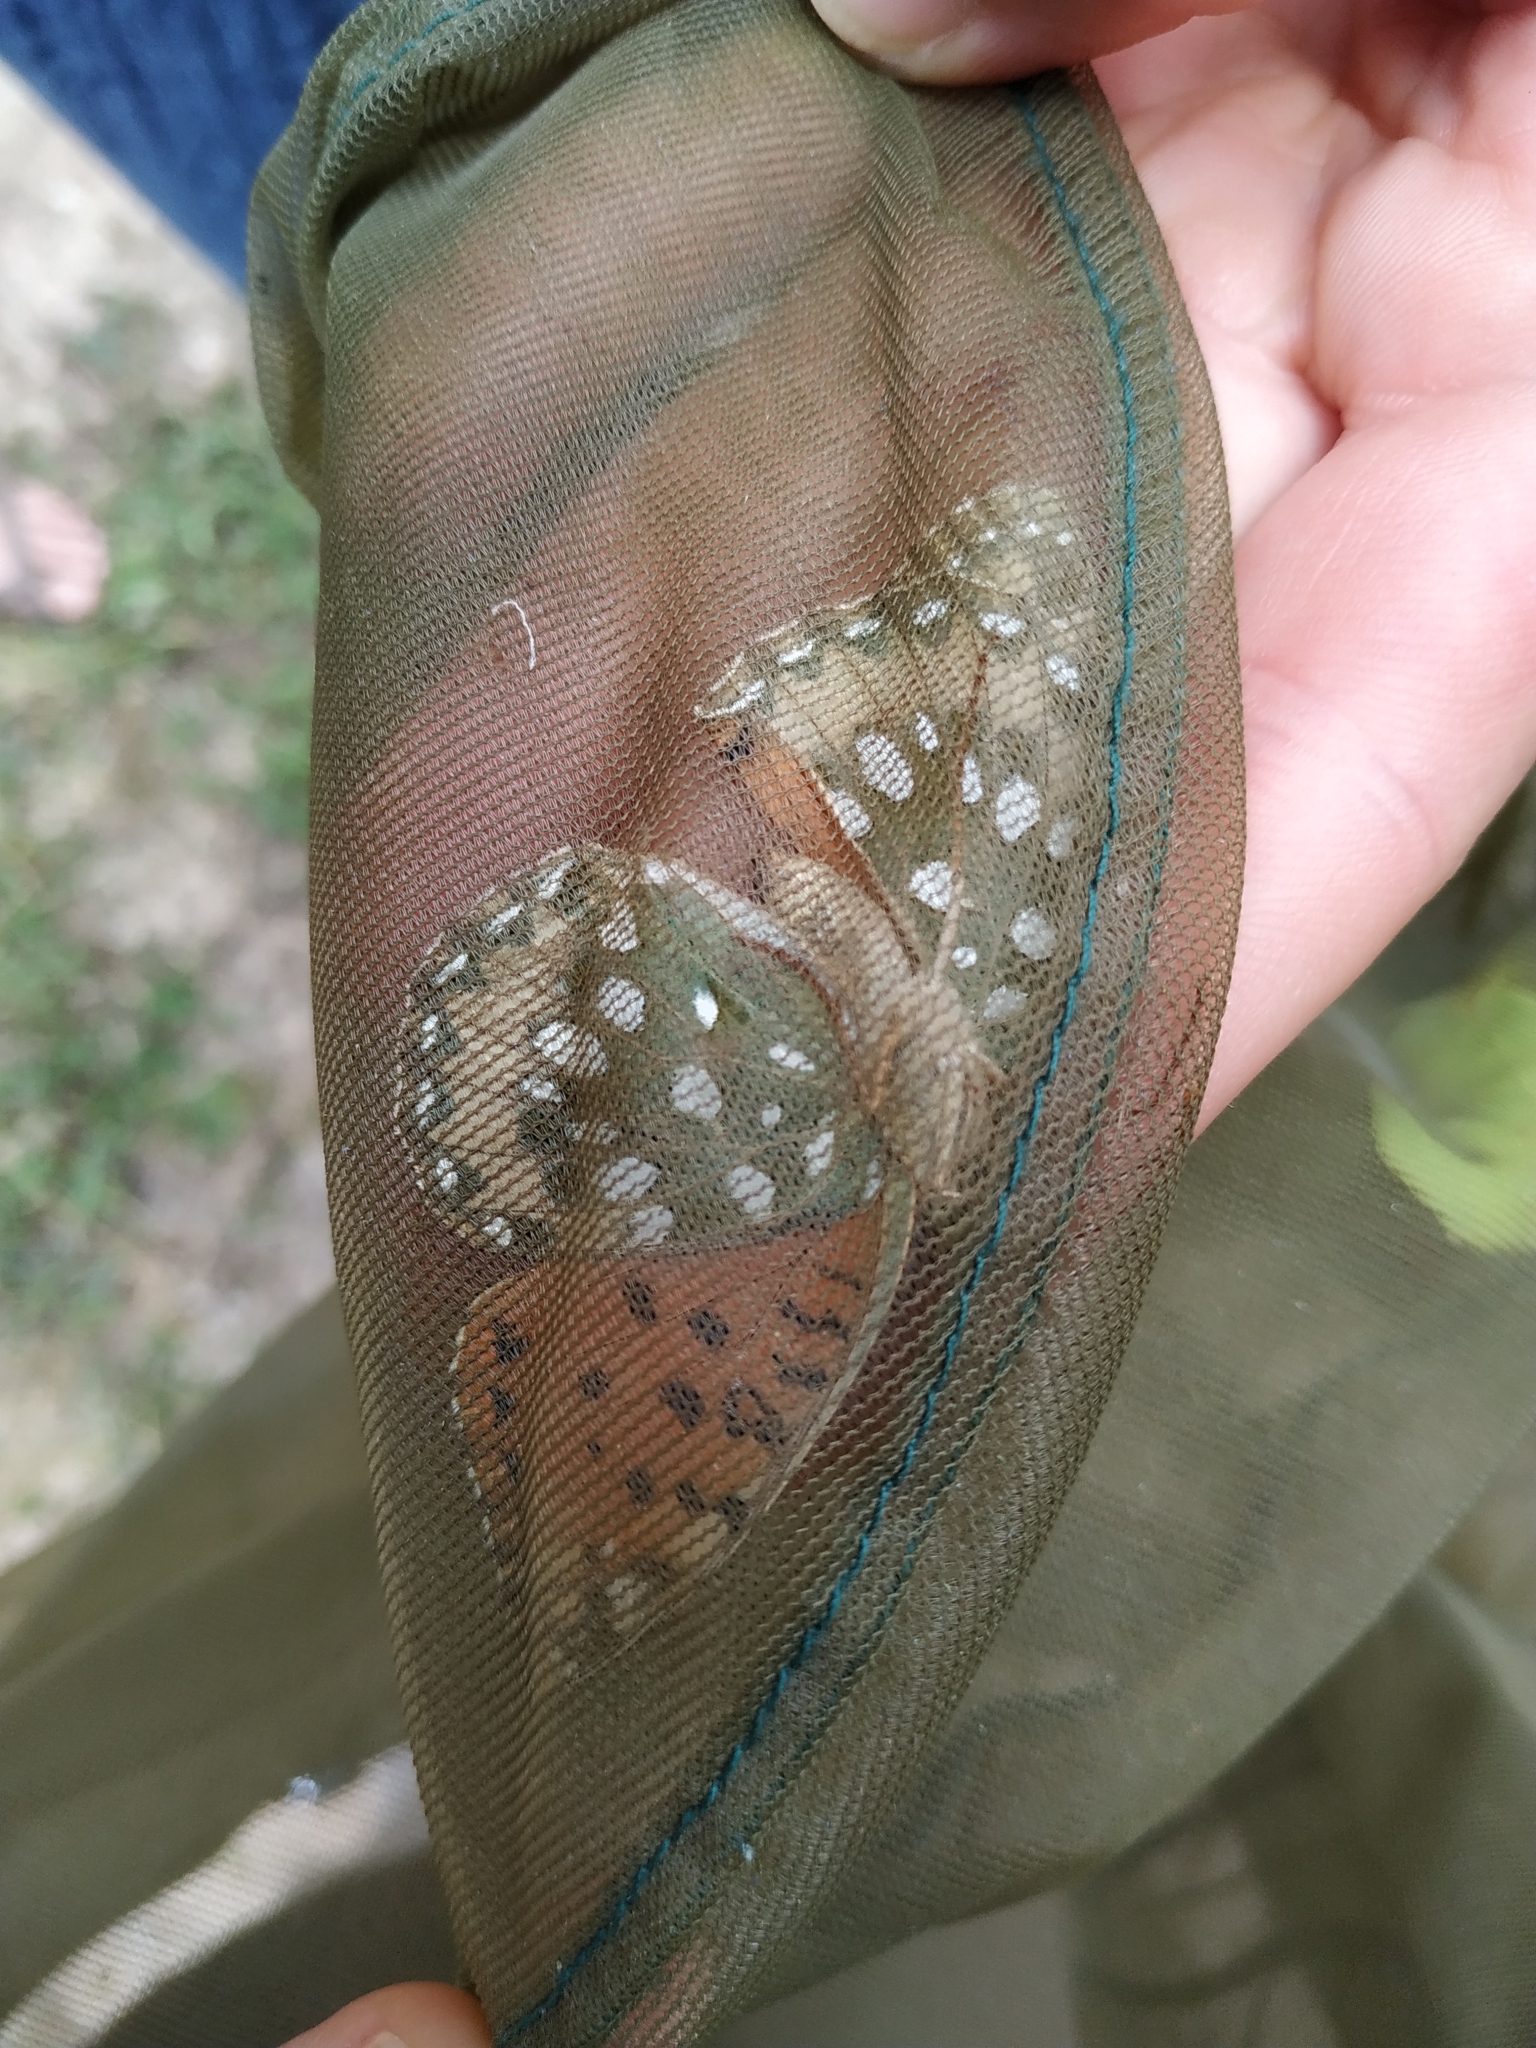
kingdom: Animalia
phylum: Arthropoda
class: Insecta
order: Lepidoptera
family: Nymphalidae
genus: Speyeria
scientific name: Speyeria aglaja
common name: Dark green fritillary
